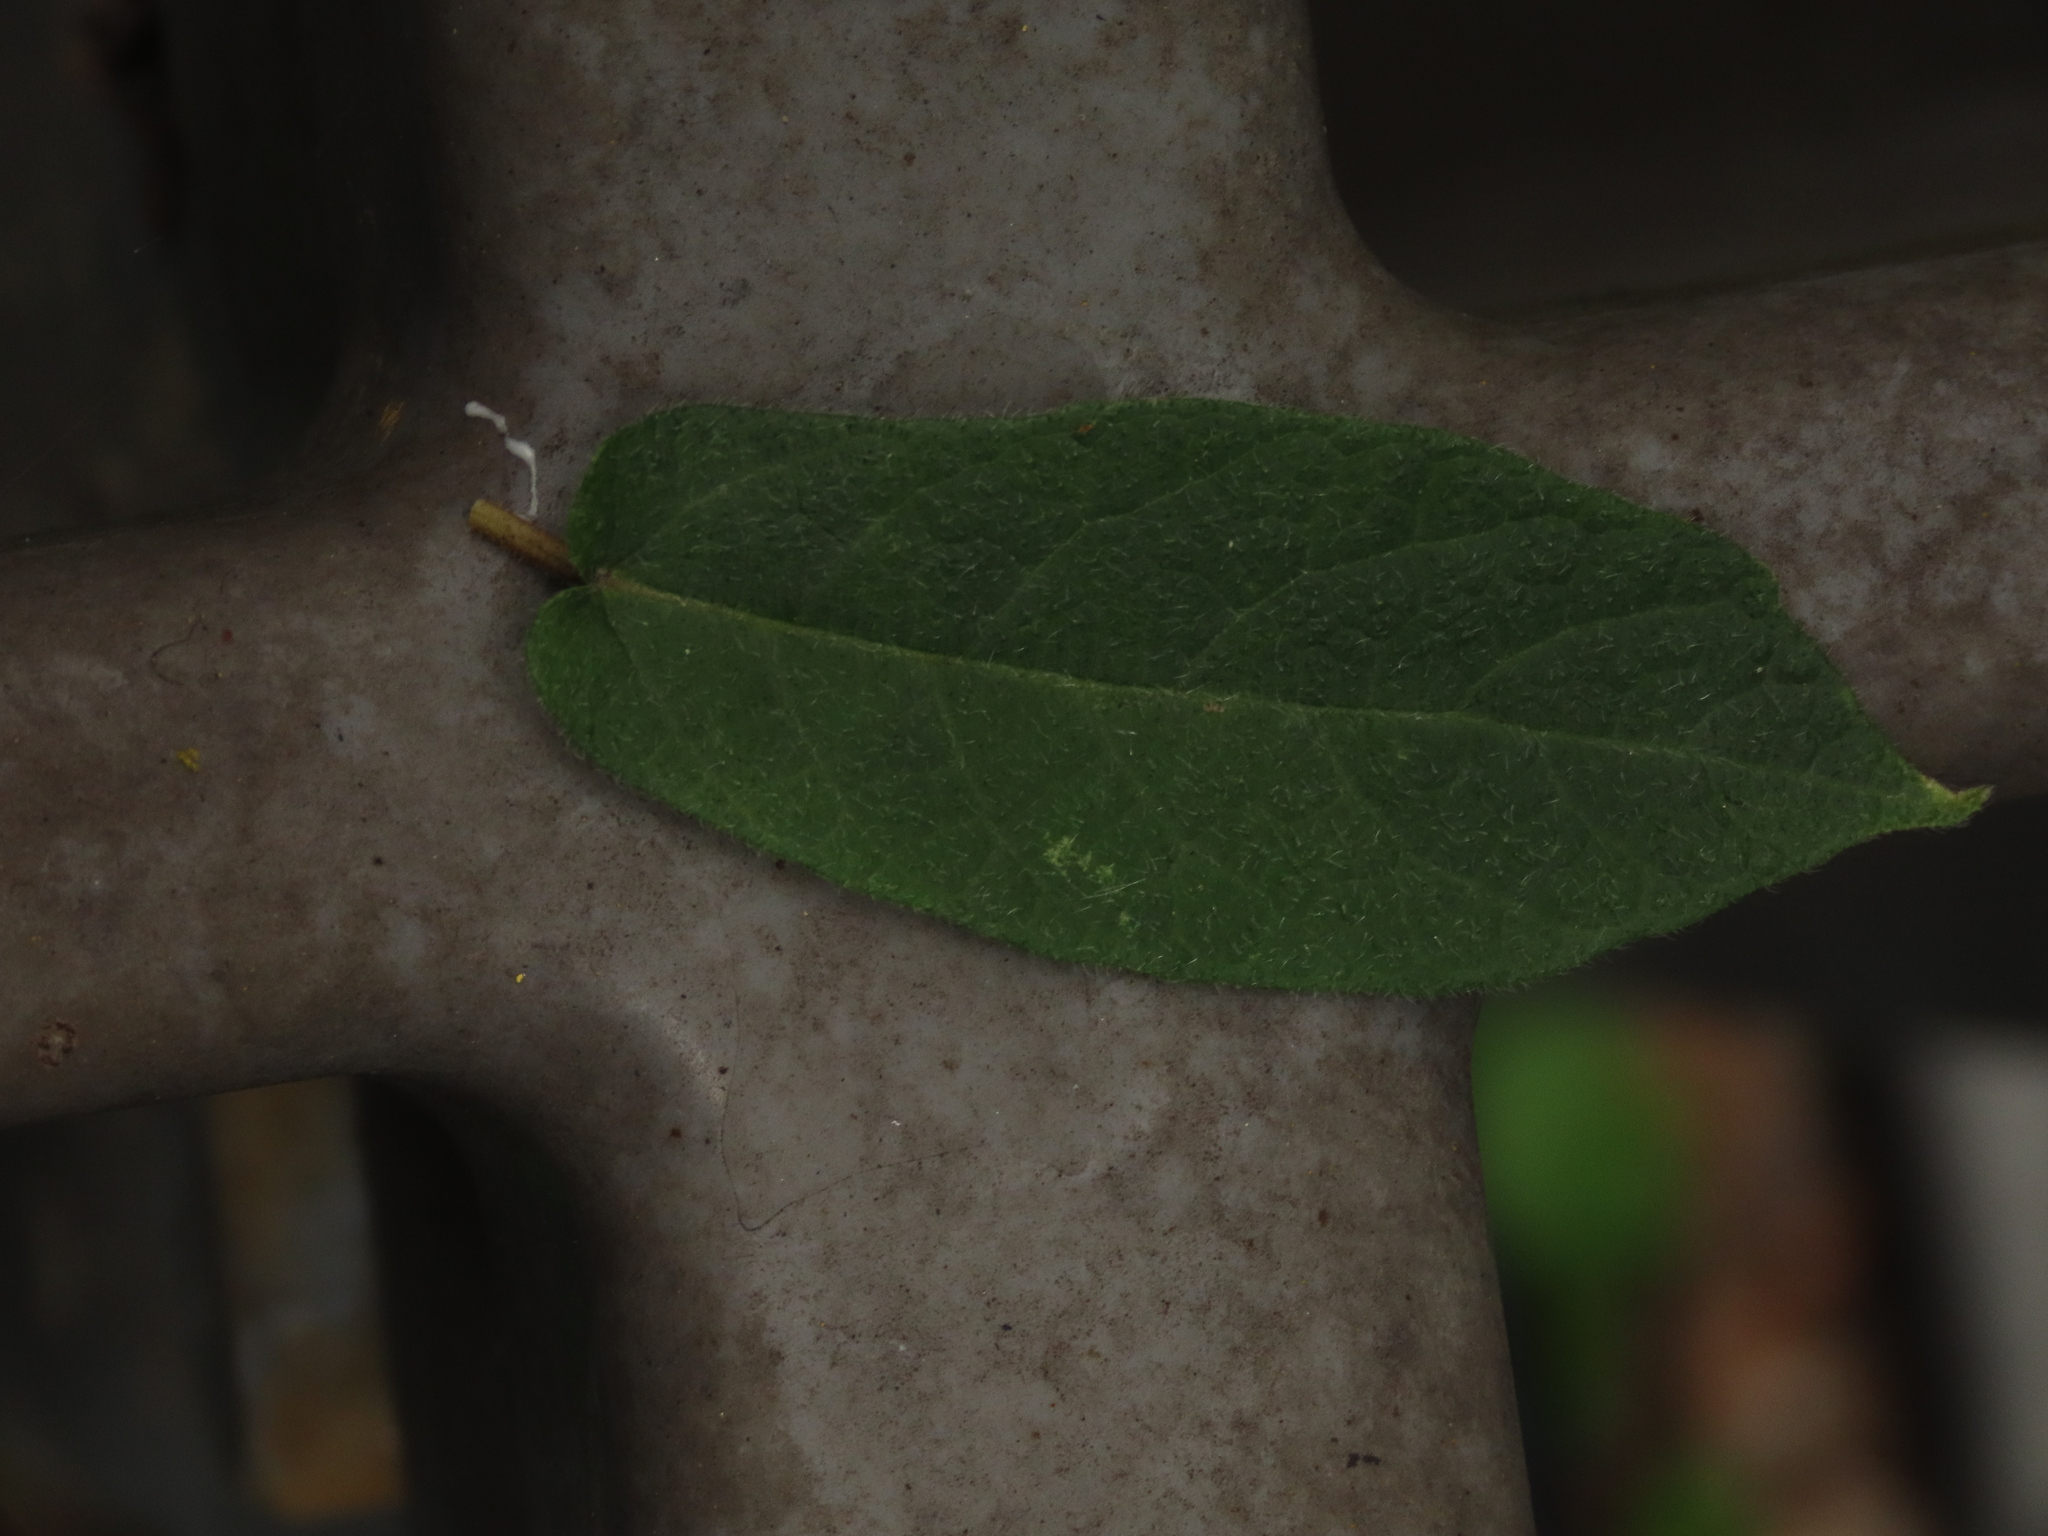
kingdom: Plantae
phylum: Tracheophyta
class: Magnoliopsida
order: Rosales
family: Moraceae
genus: Ficus
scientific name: Ficus erecta
